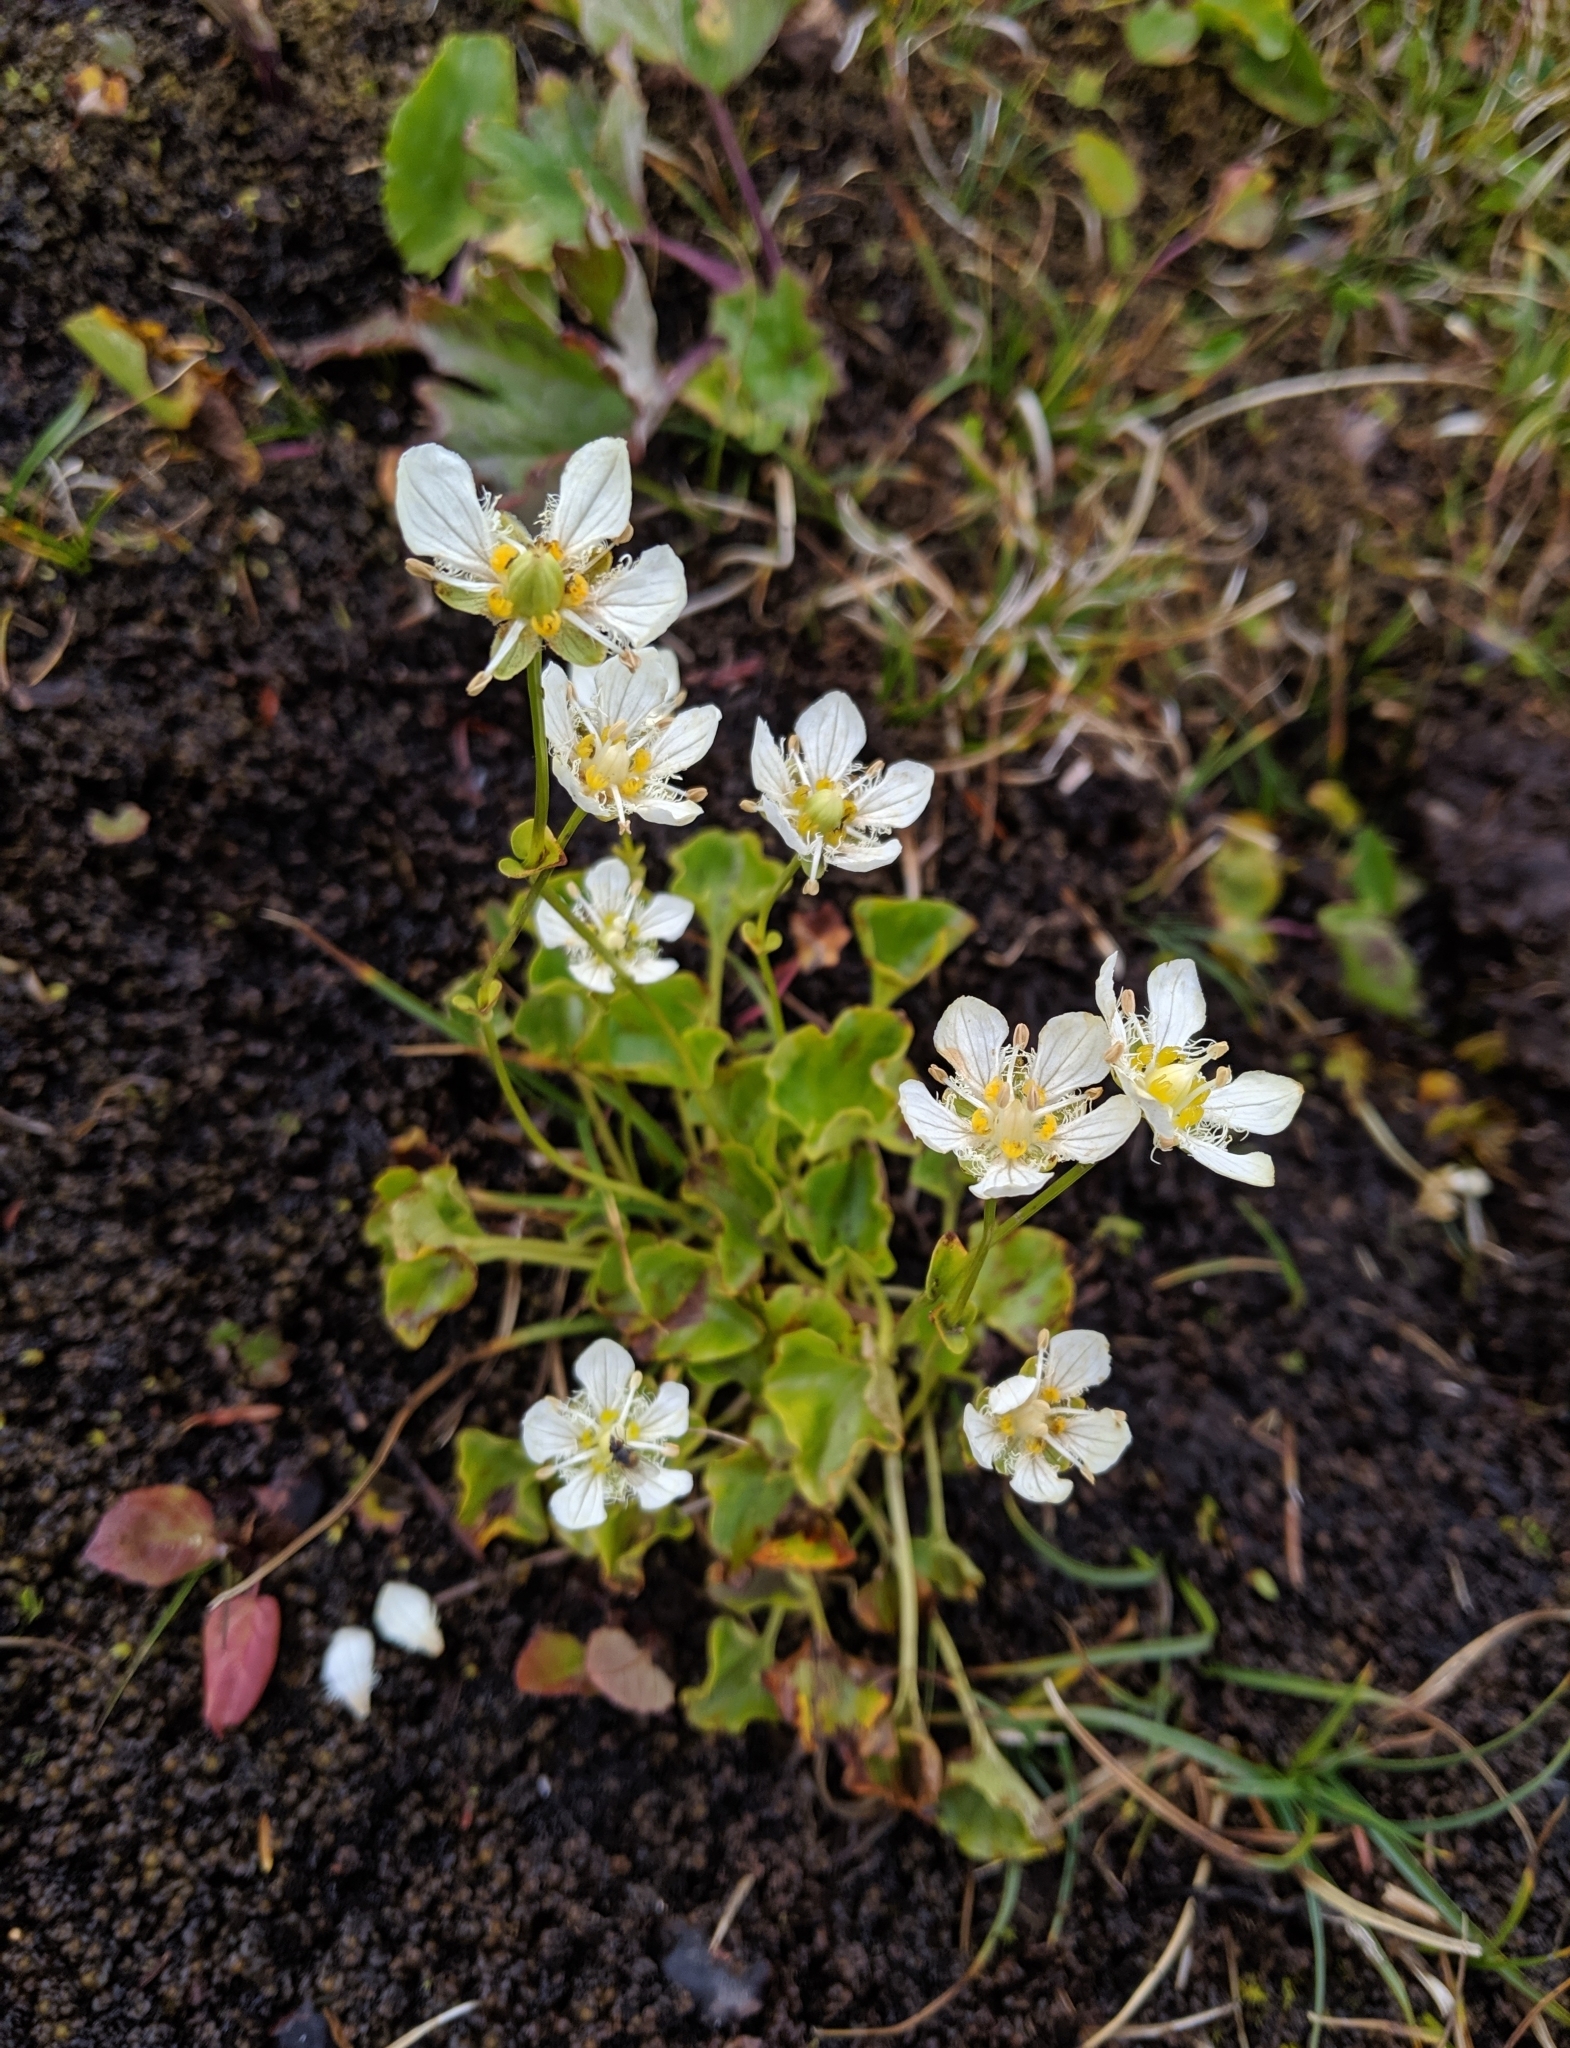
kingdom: Plantae
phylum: Tracheophyta
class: Magnoliopsida
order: Celastrales
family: Parnassiaceae
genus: Parnassia
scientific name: Parnassia fimbriata
